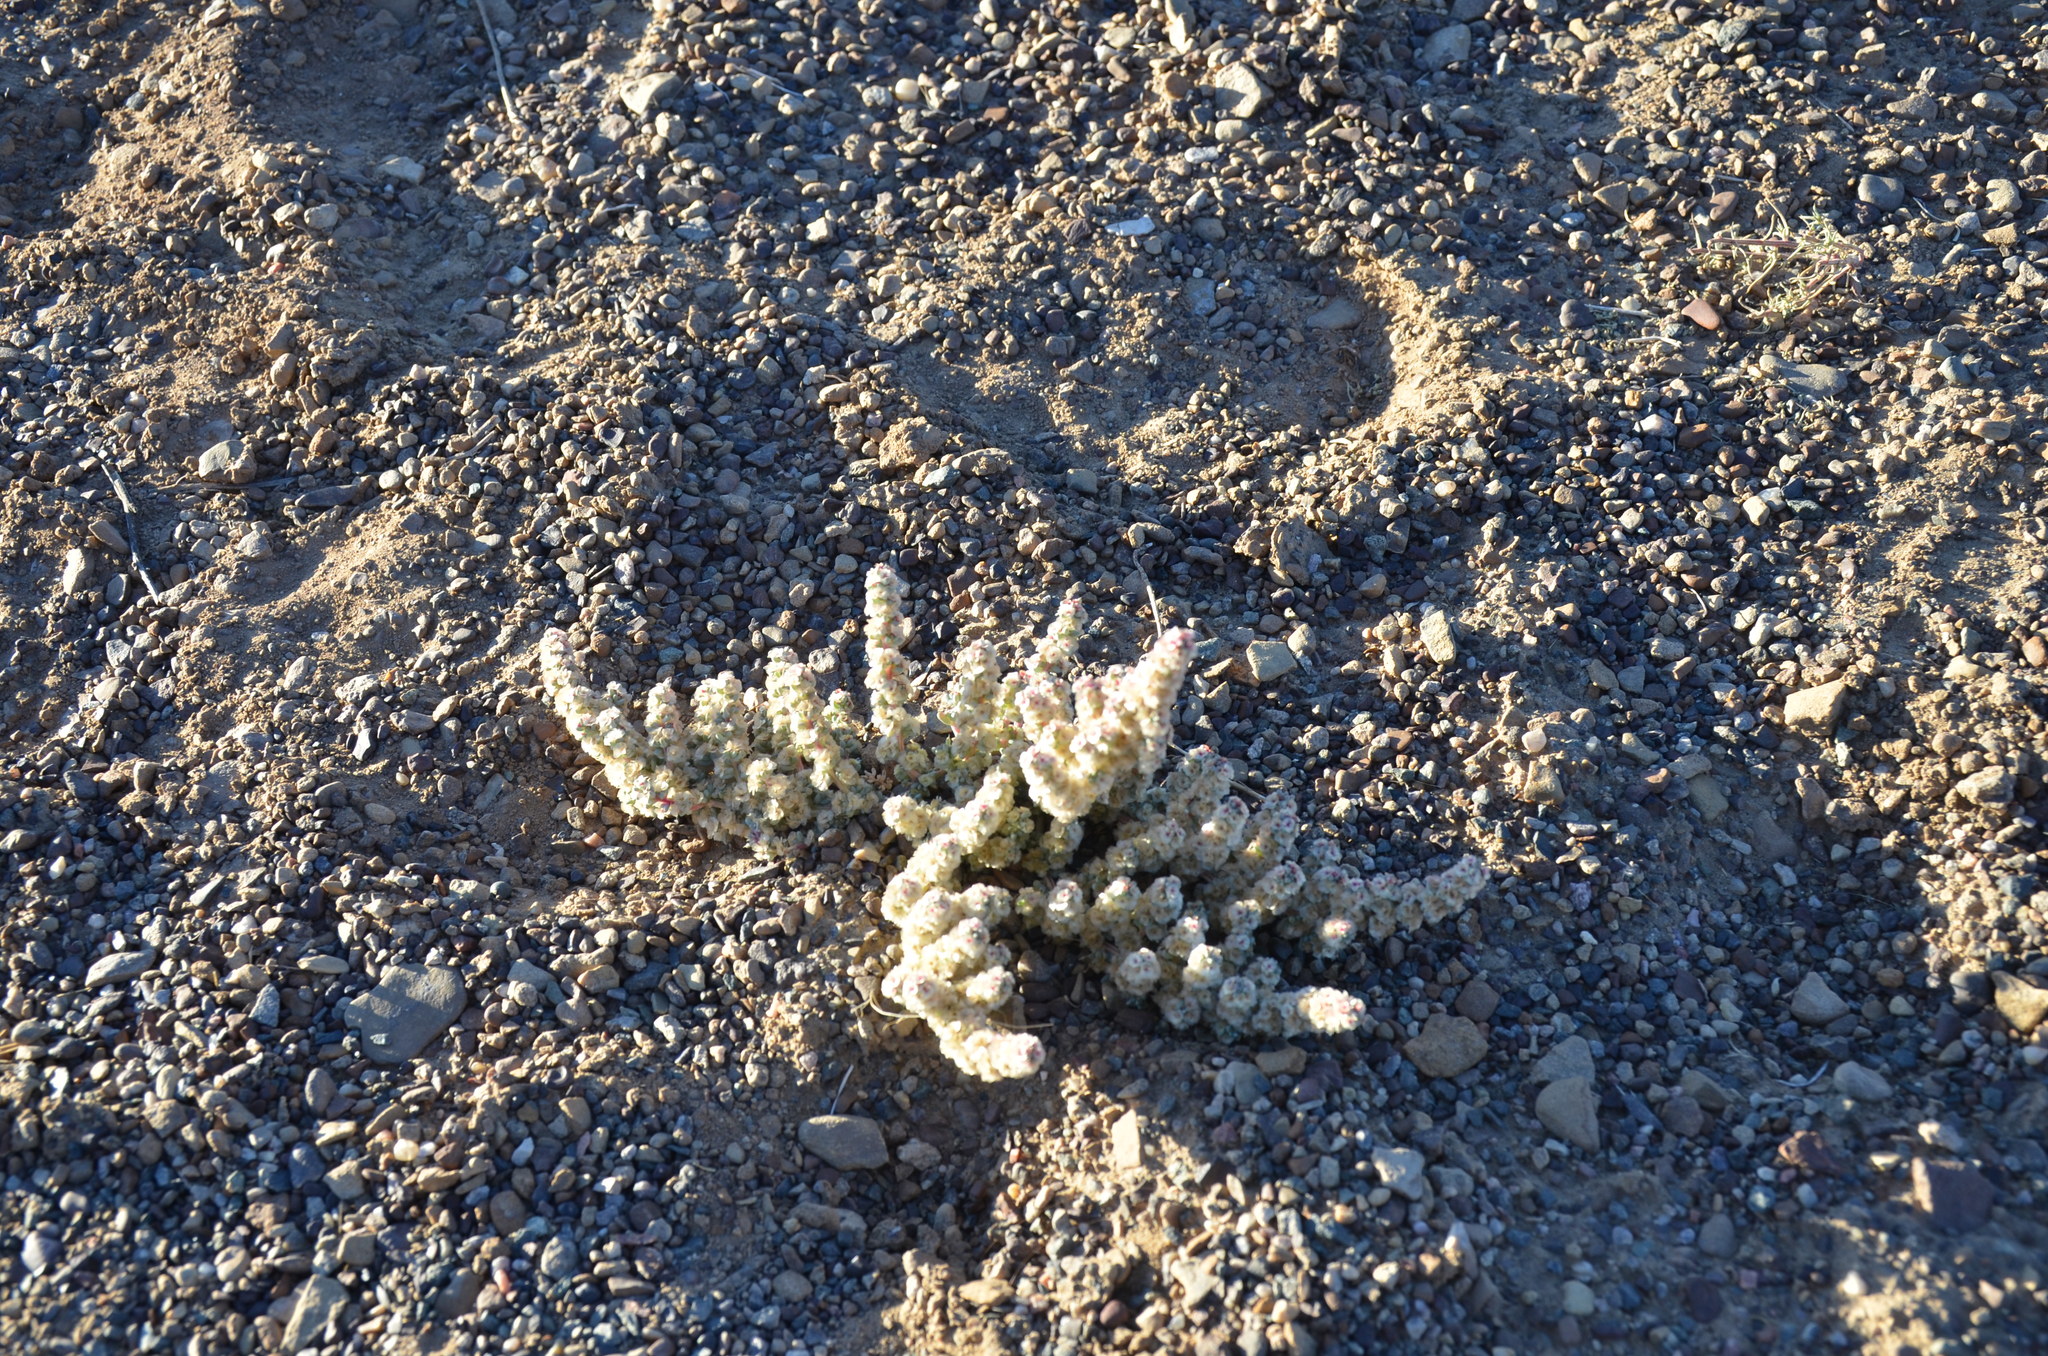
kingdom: Plantae
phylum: Tracheophyta
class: Magnoliopsida
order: Caryophyllales
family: Amaranthaceae
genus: Halogeton
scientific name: Halogeton glomeratus
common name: Saltlover
